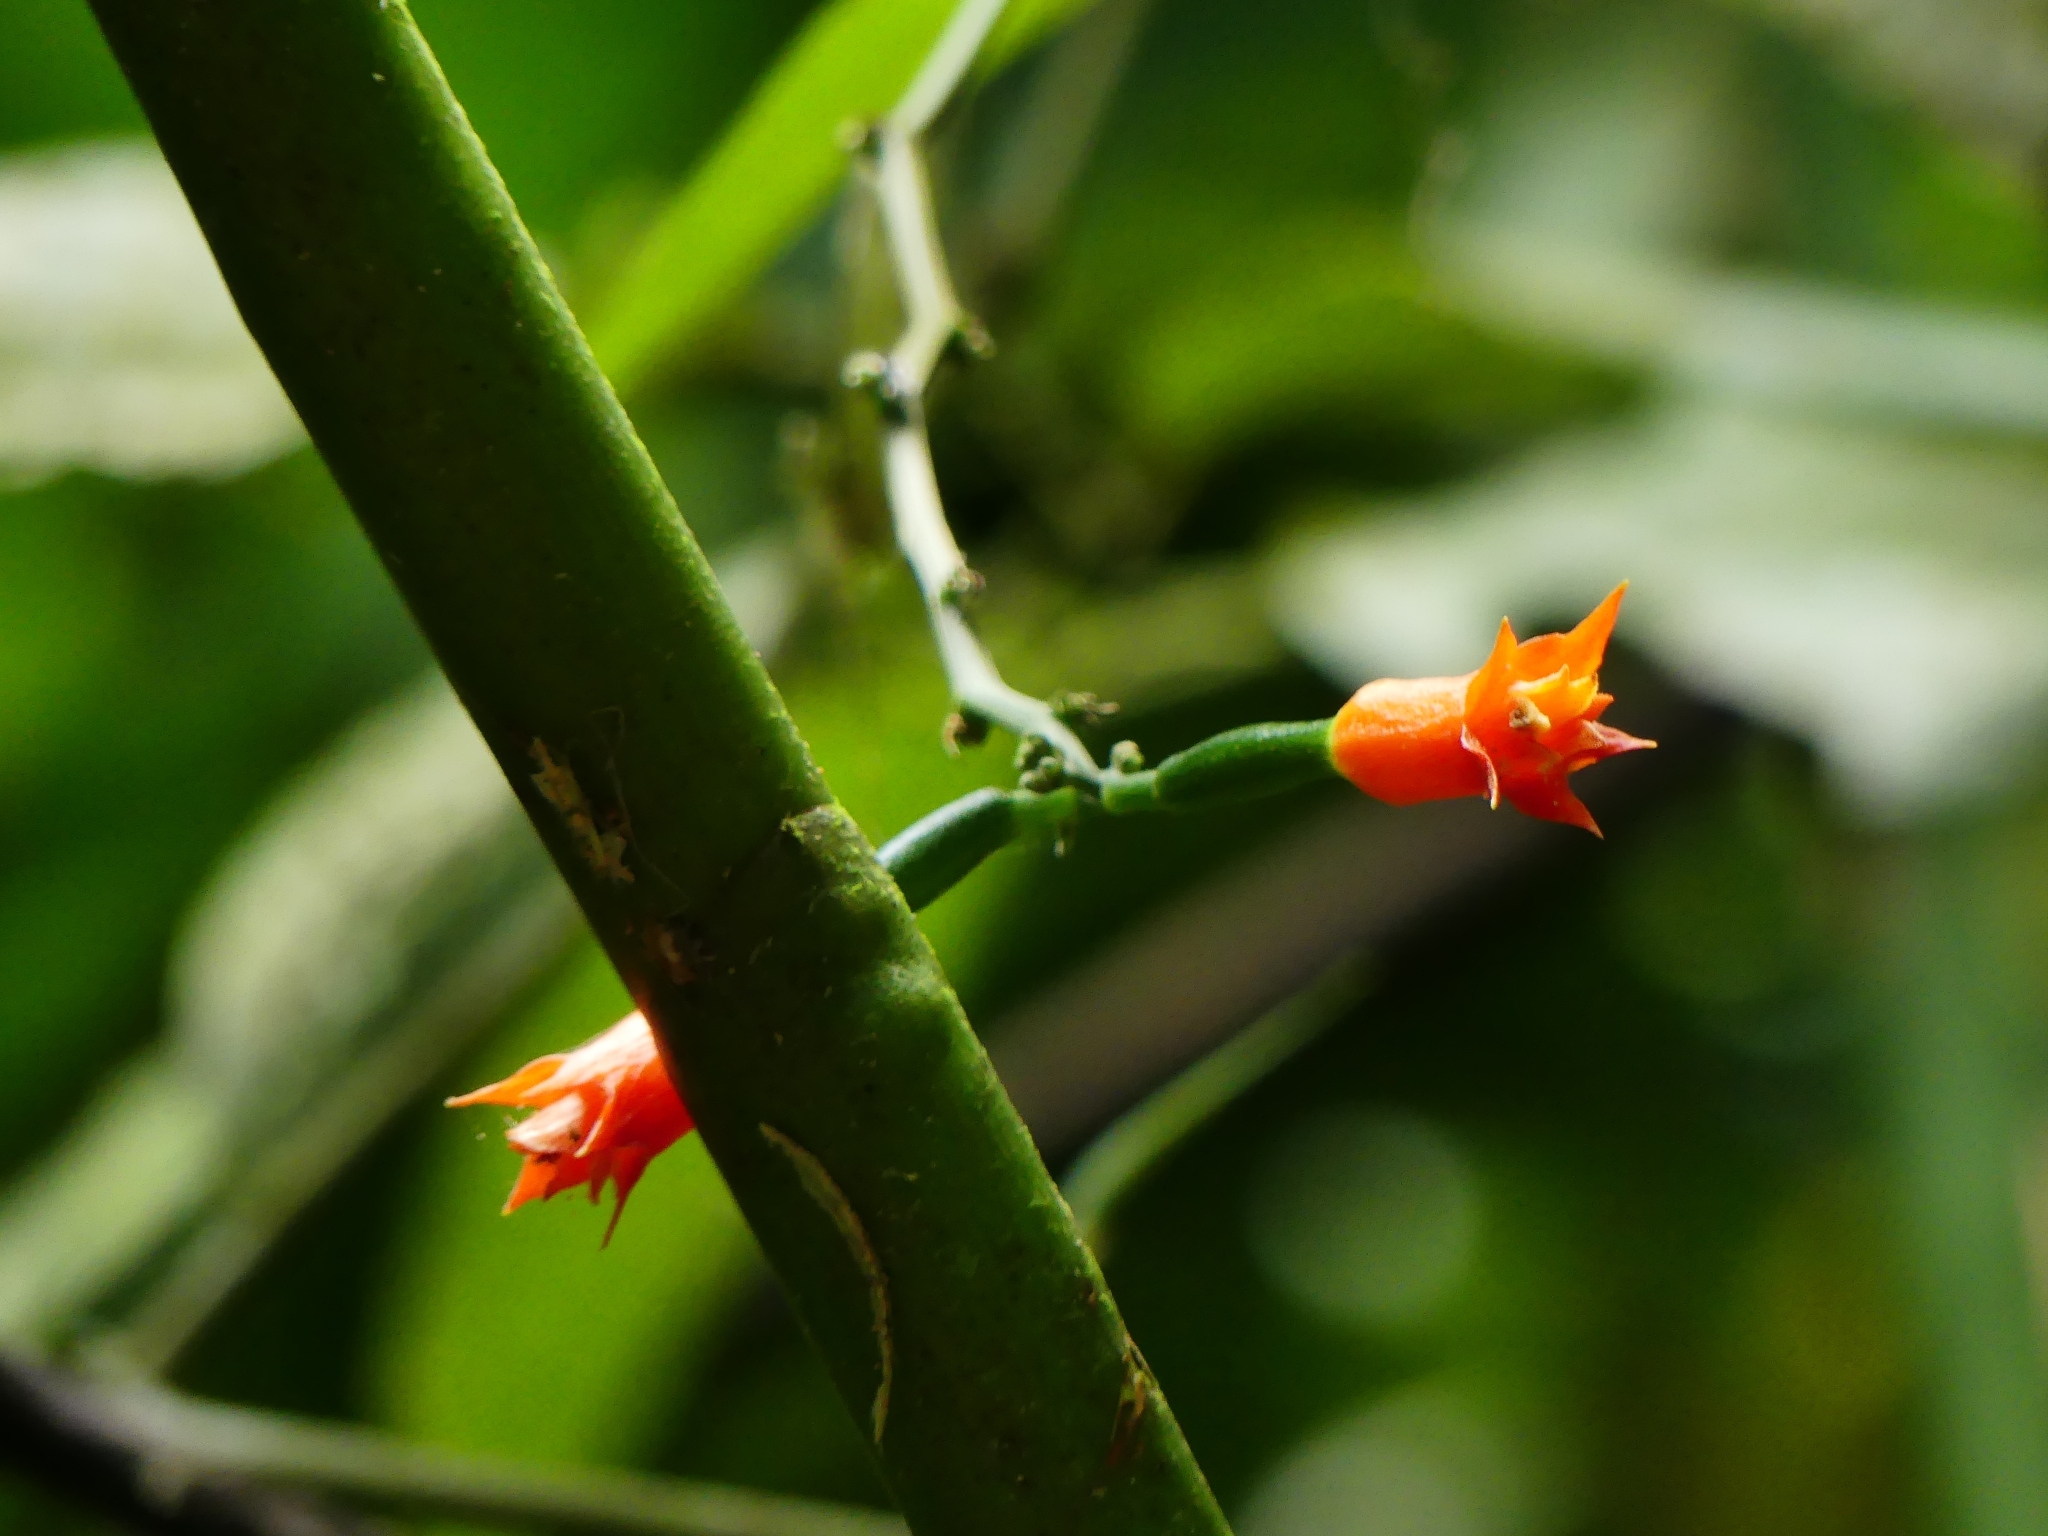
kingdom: Plantae
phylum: Tracheophyta
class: Magnoliopsida
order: Cucurbitales
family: Cucurbitaceae
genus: Gurania
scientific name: Gurania huberi
